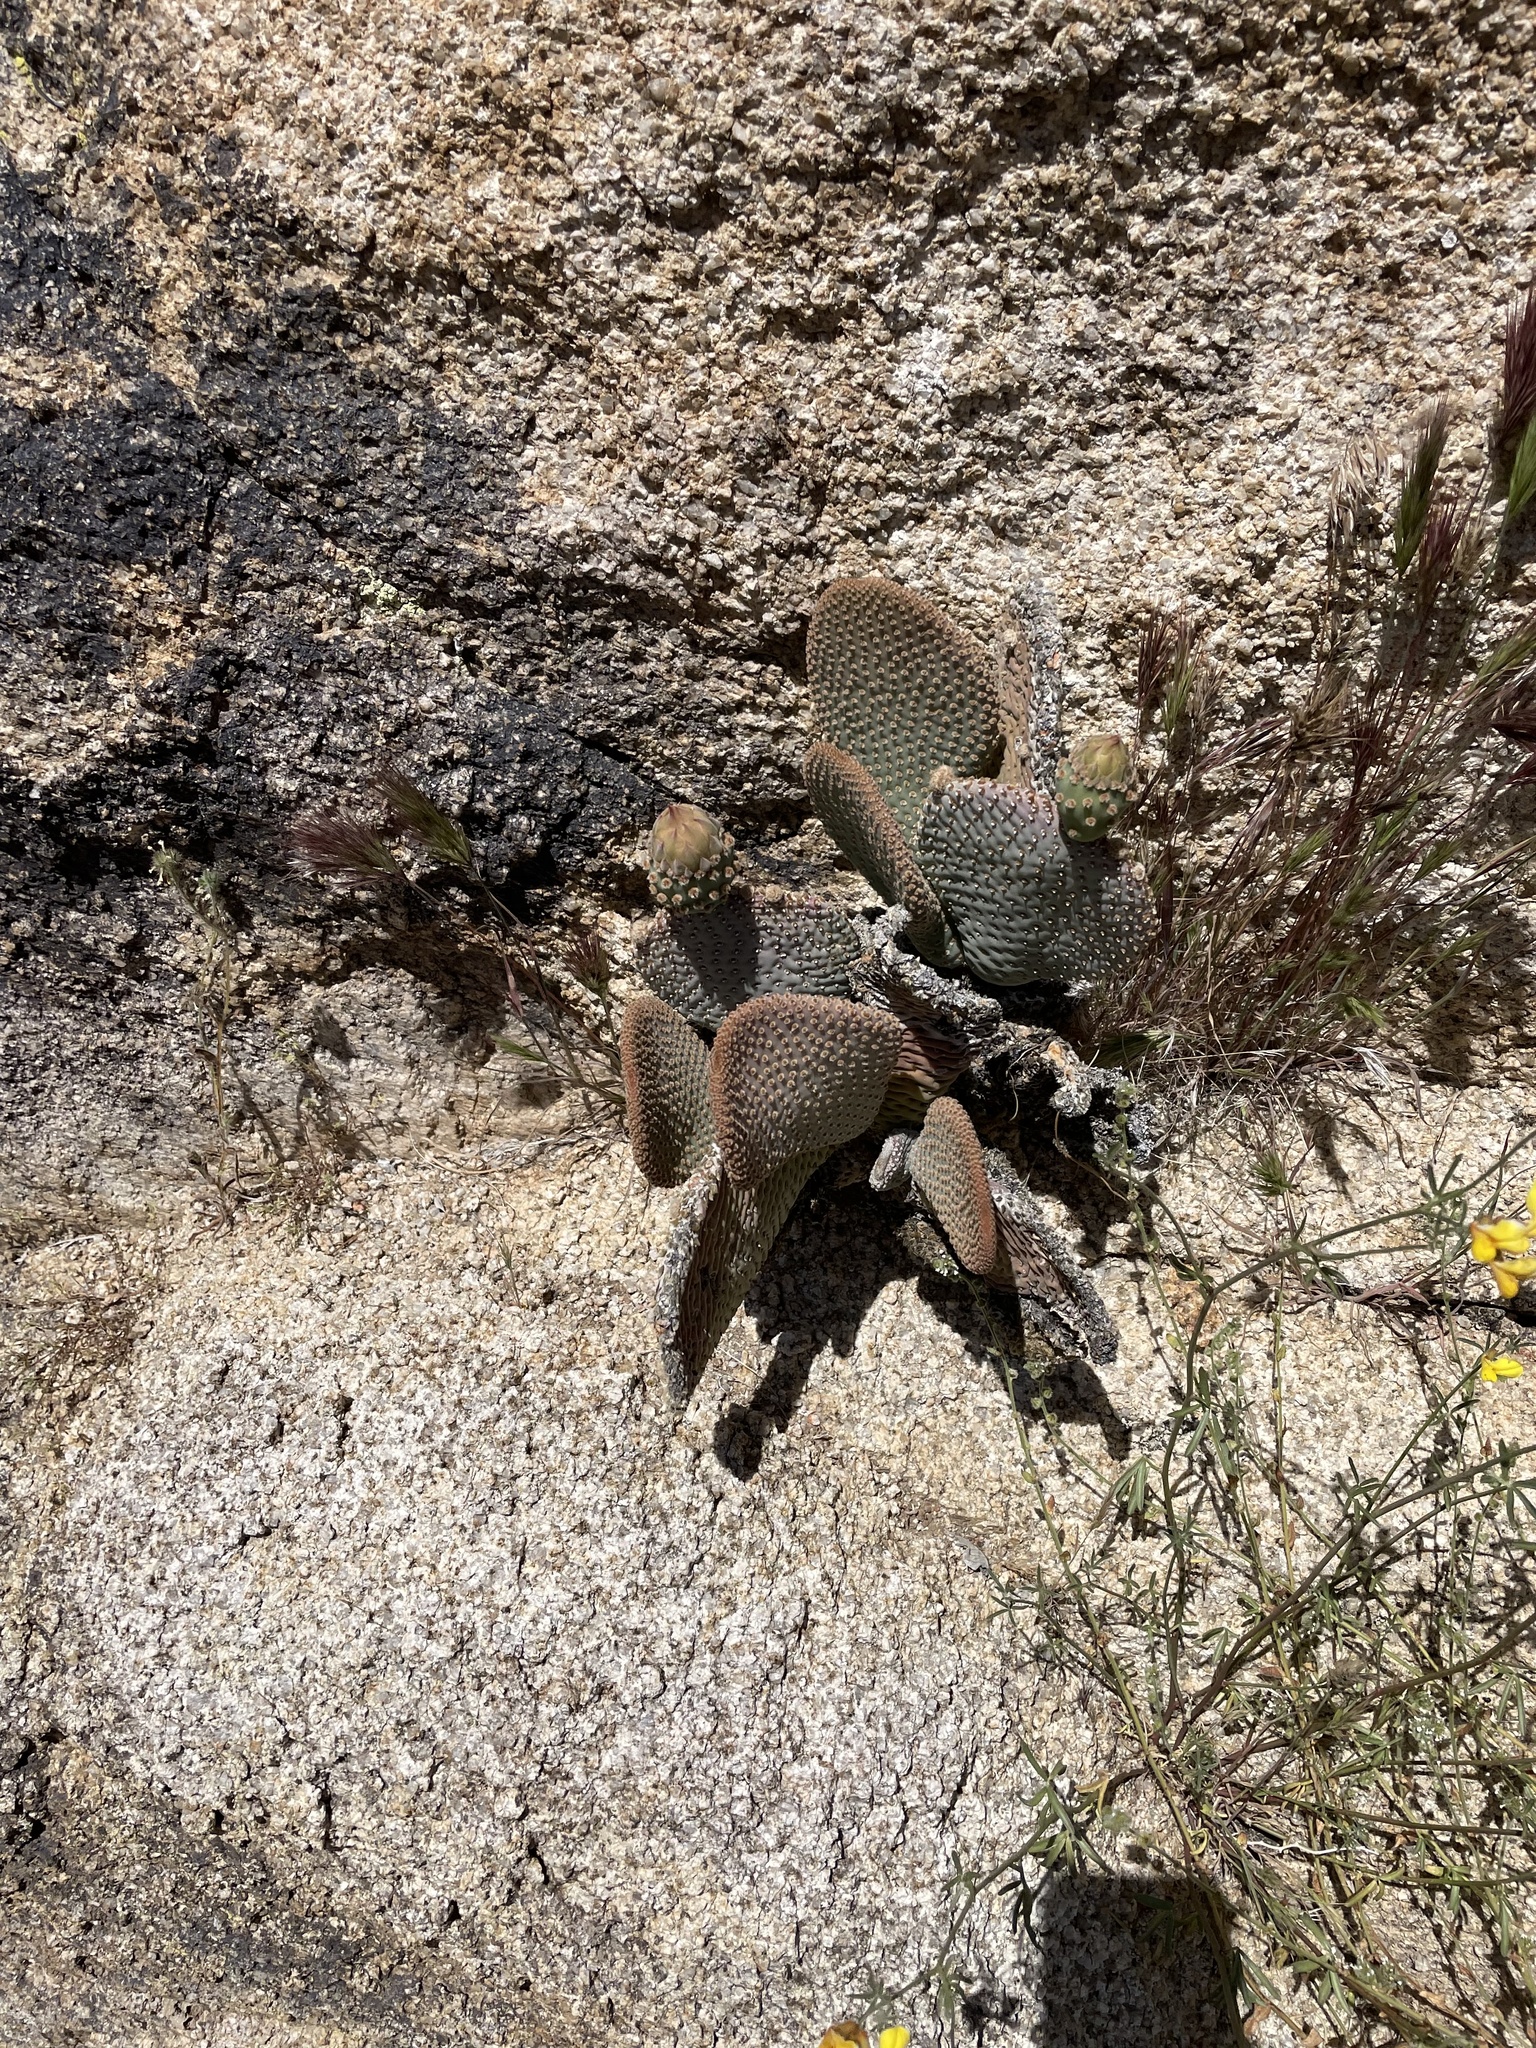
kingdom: Plantae
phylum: Tracheophyta
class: Magnoliopsida
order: Caryophyllales
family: Cactaceae
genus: Opuntia
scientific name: Opuntia basilaris
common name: Beavertail prickly-pear
